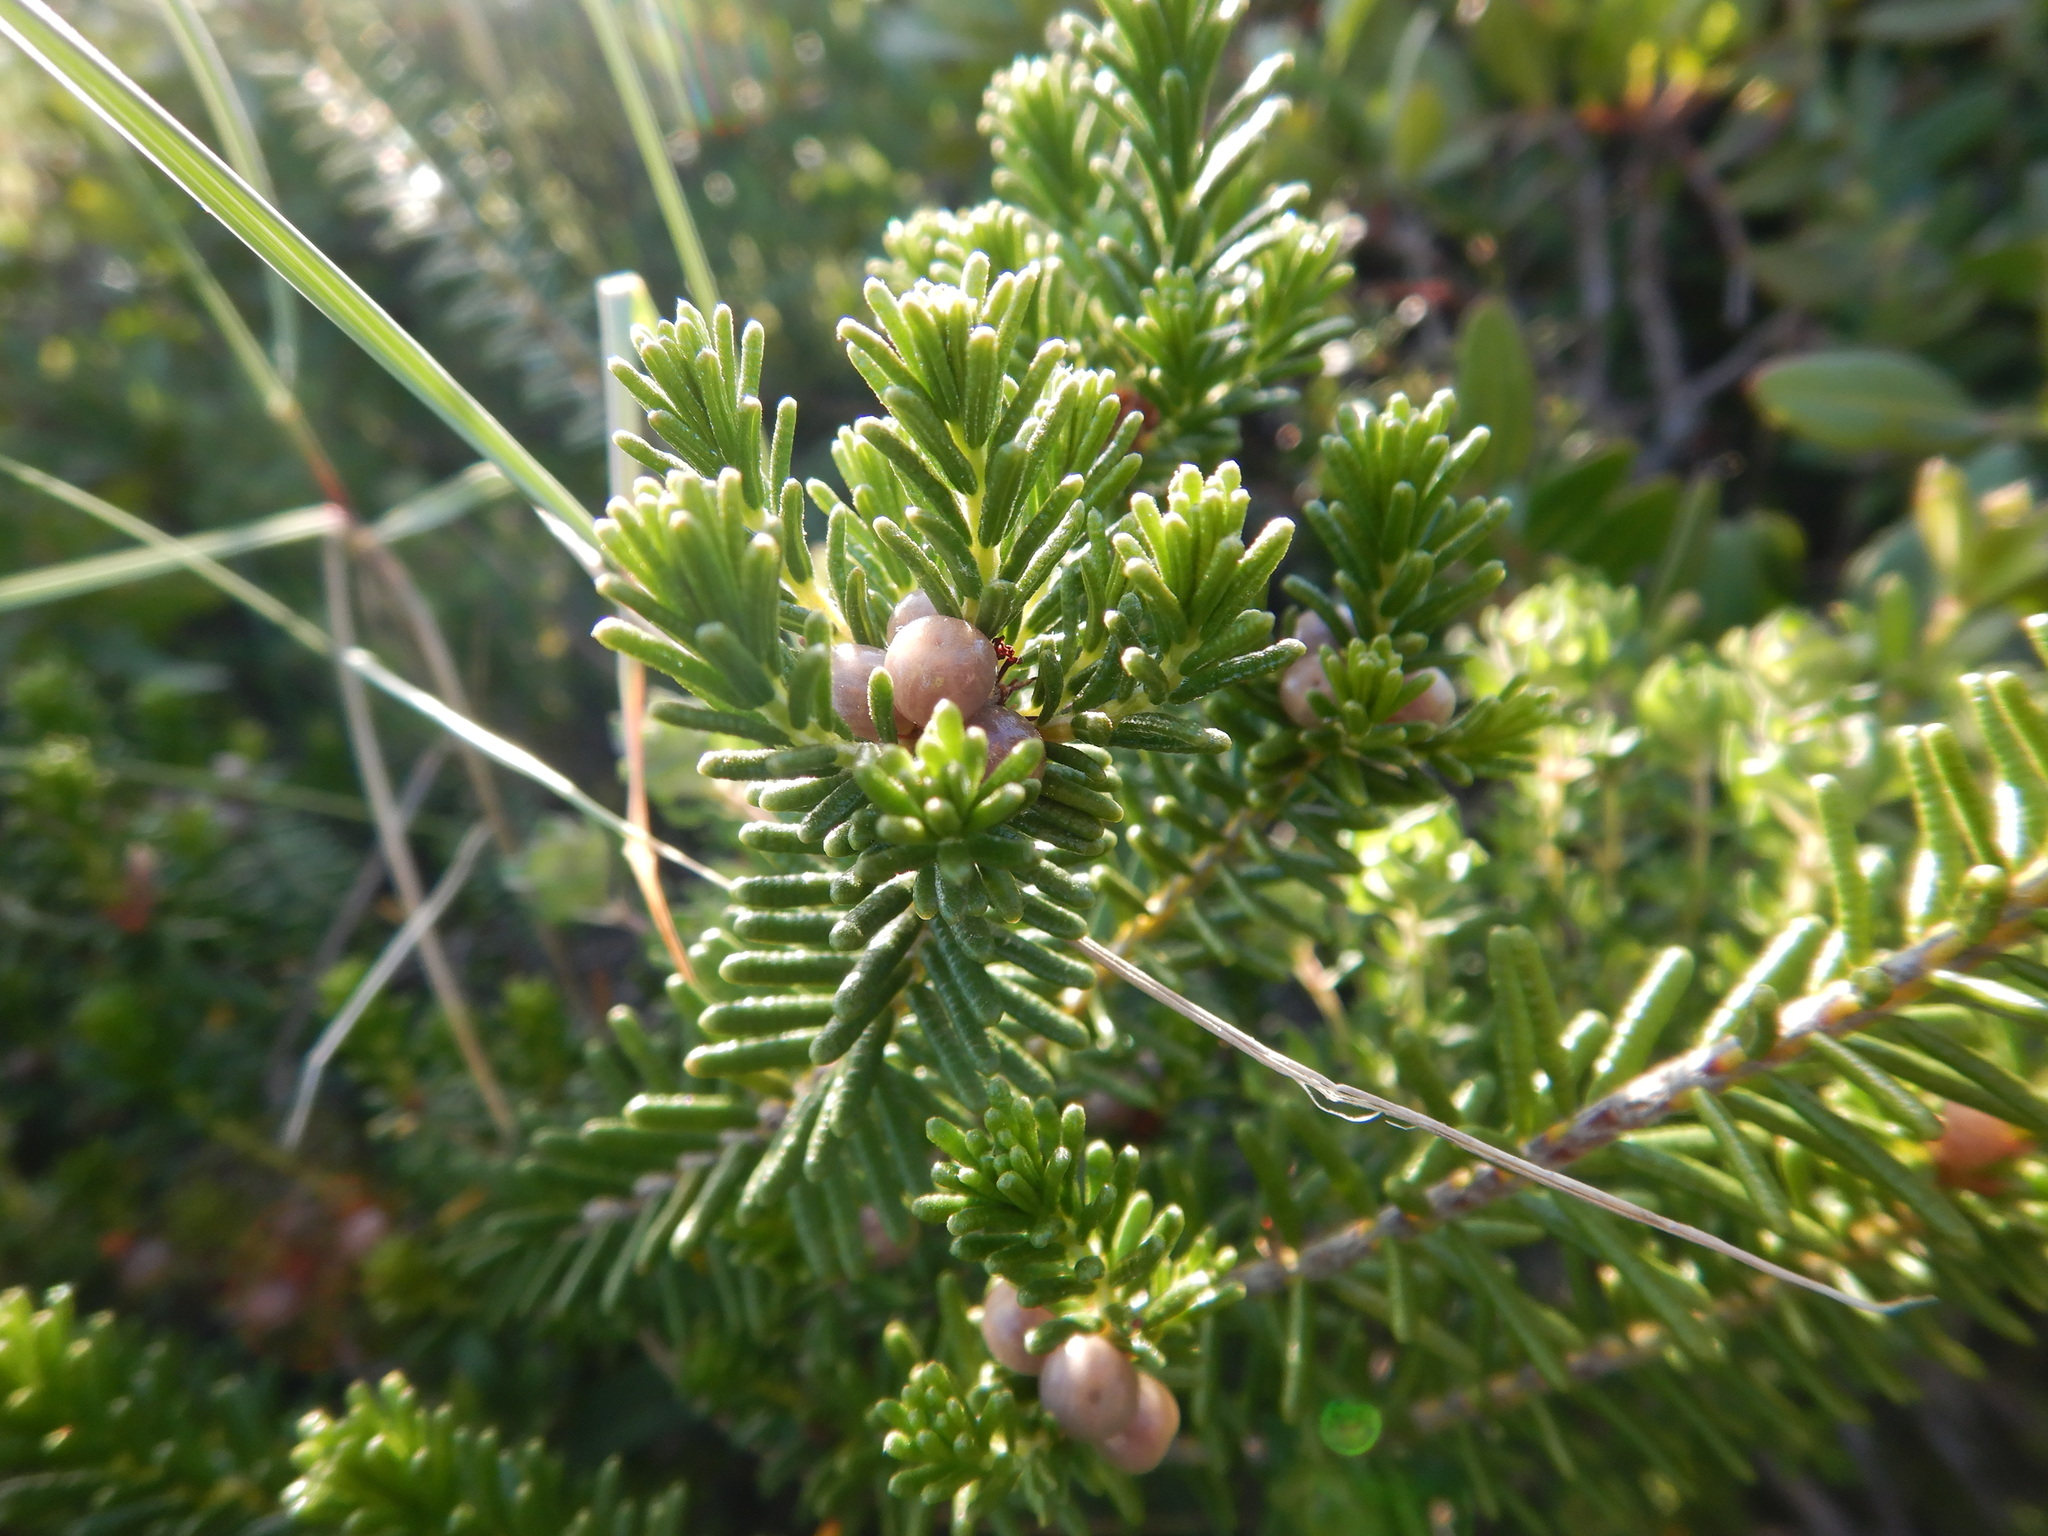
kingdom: Plantae
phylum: Tracheophyta
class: Magnoliopsida
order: Ericales
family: Ericaceae
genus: Corema
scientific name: Corema album
